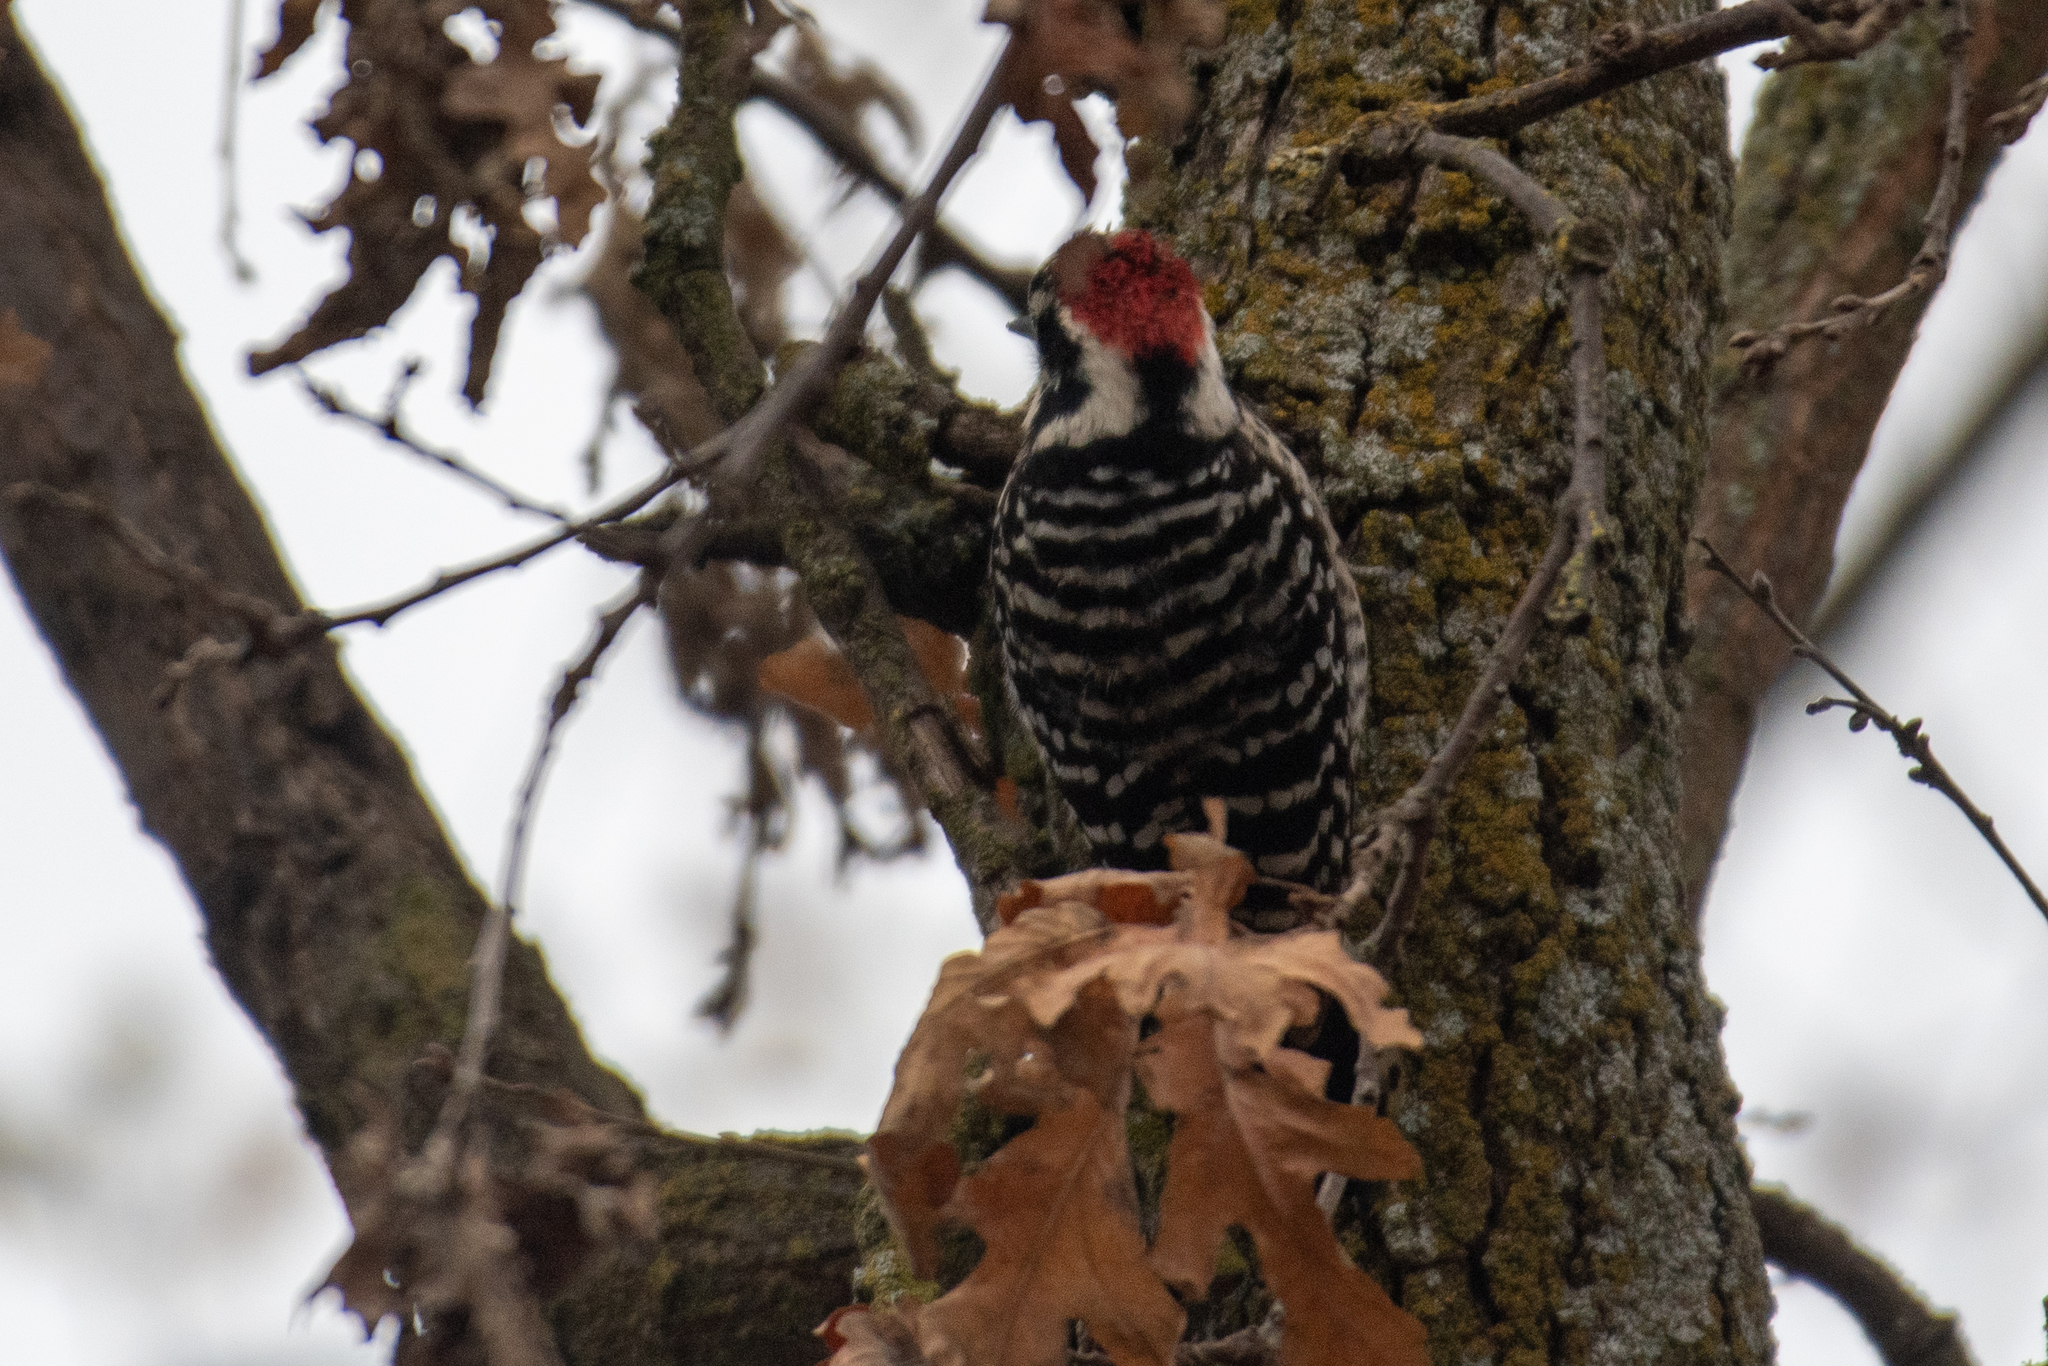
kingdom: Animalia
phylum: Chordata
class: Aves
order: Piciformes
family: Picidae
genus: Dryobates
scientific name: Dryobates nuttallii
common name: Nuttall's woodpecker
